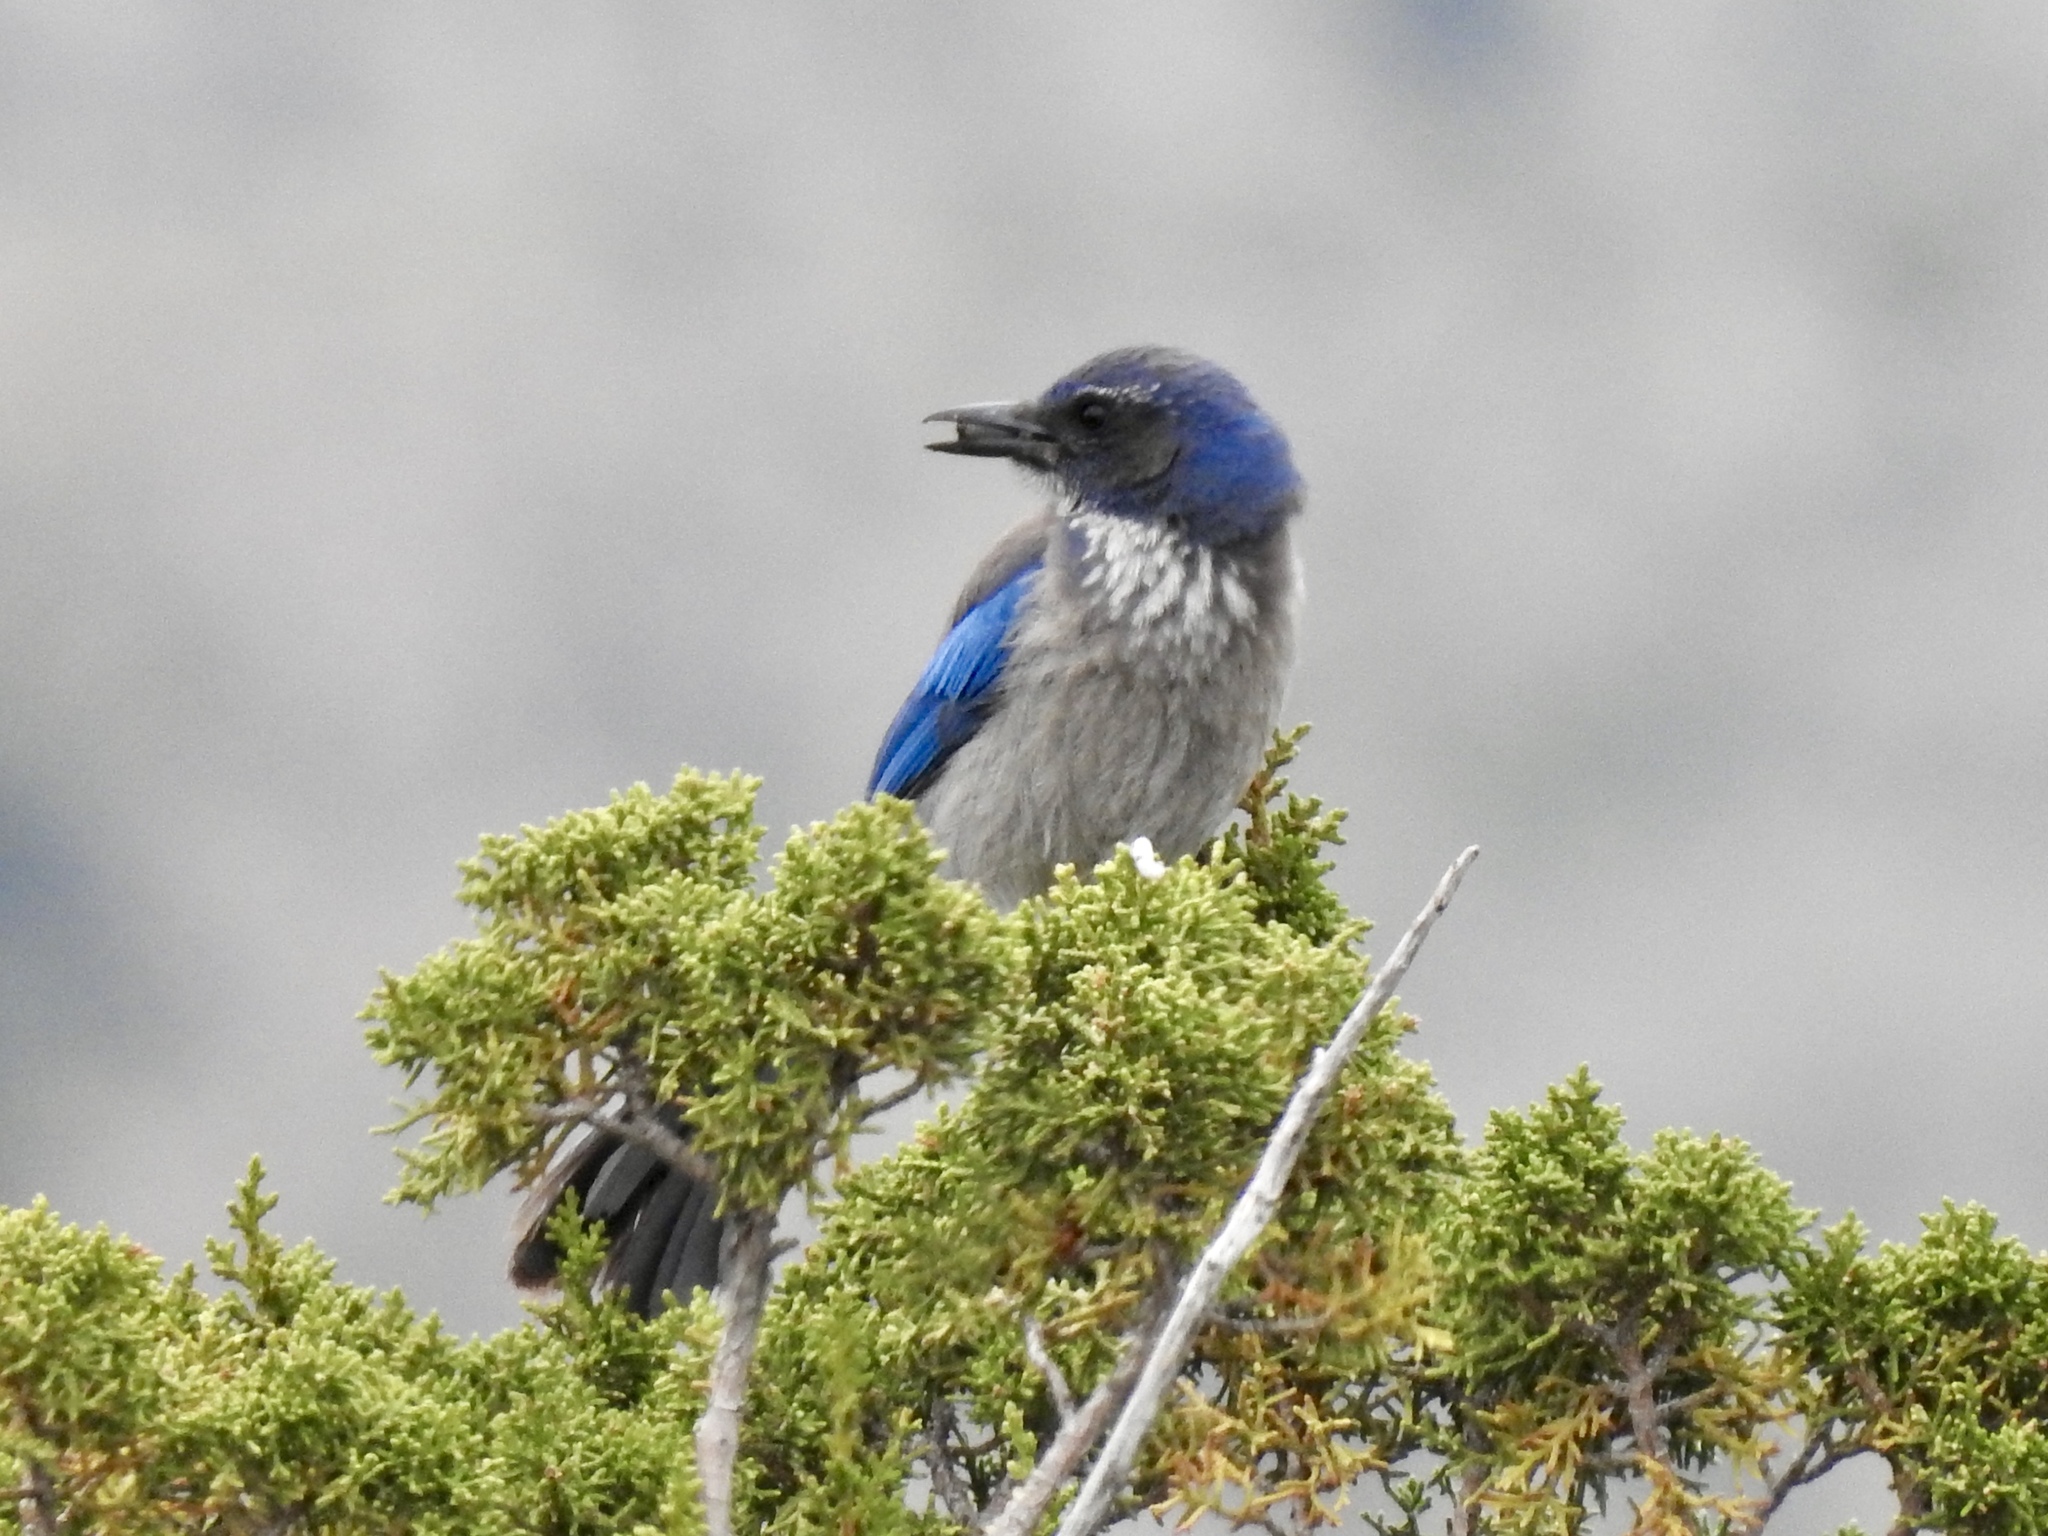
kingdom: Animalia
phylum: Chordata
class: Aves
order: Passeriformes
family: Corvidae
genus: Aphelocoma
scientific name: Aphelocoma woodhouseii
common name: Woodhouse's scrub-jay
